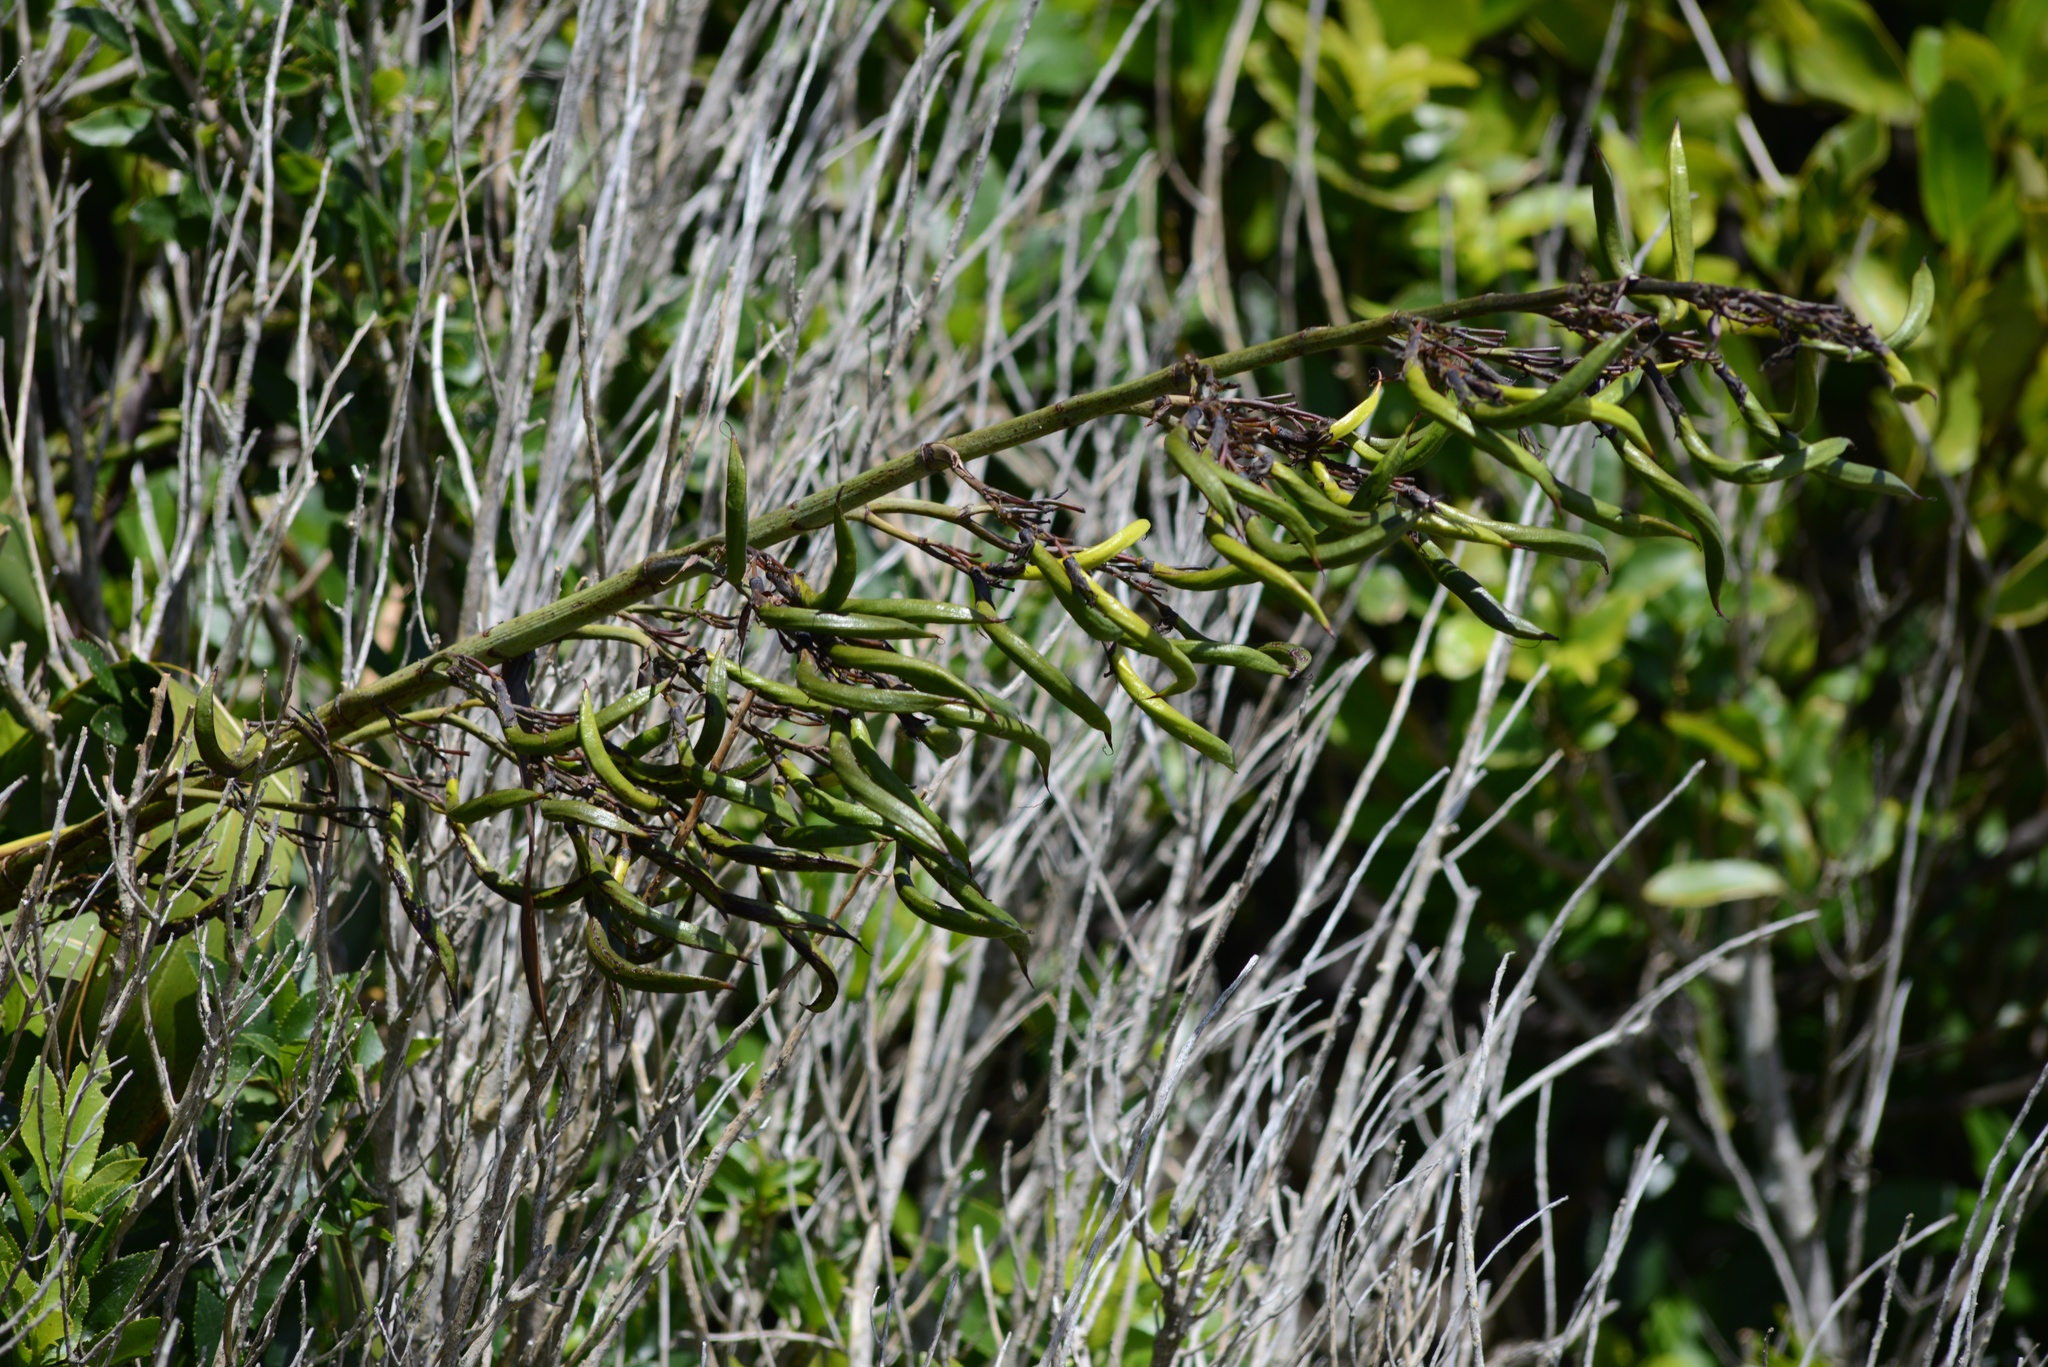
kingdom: Plantae
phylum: Tracheophyta
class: Liliopsida
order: Asparagales
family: Asphodelaceae
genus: Phormium
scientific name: Phormium colensoi
